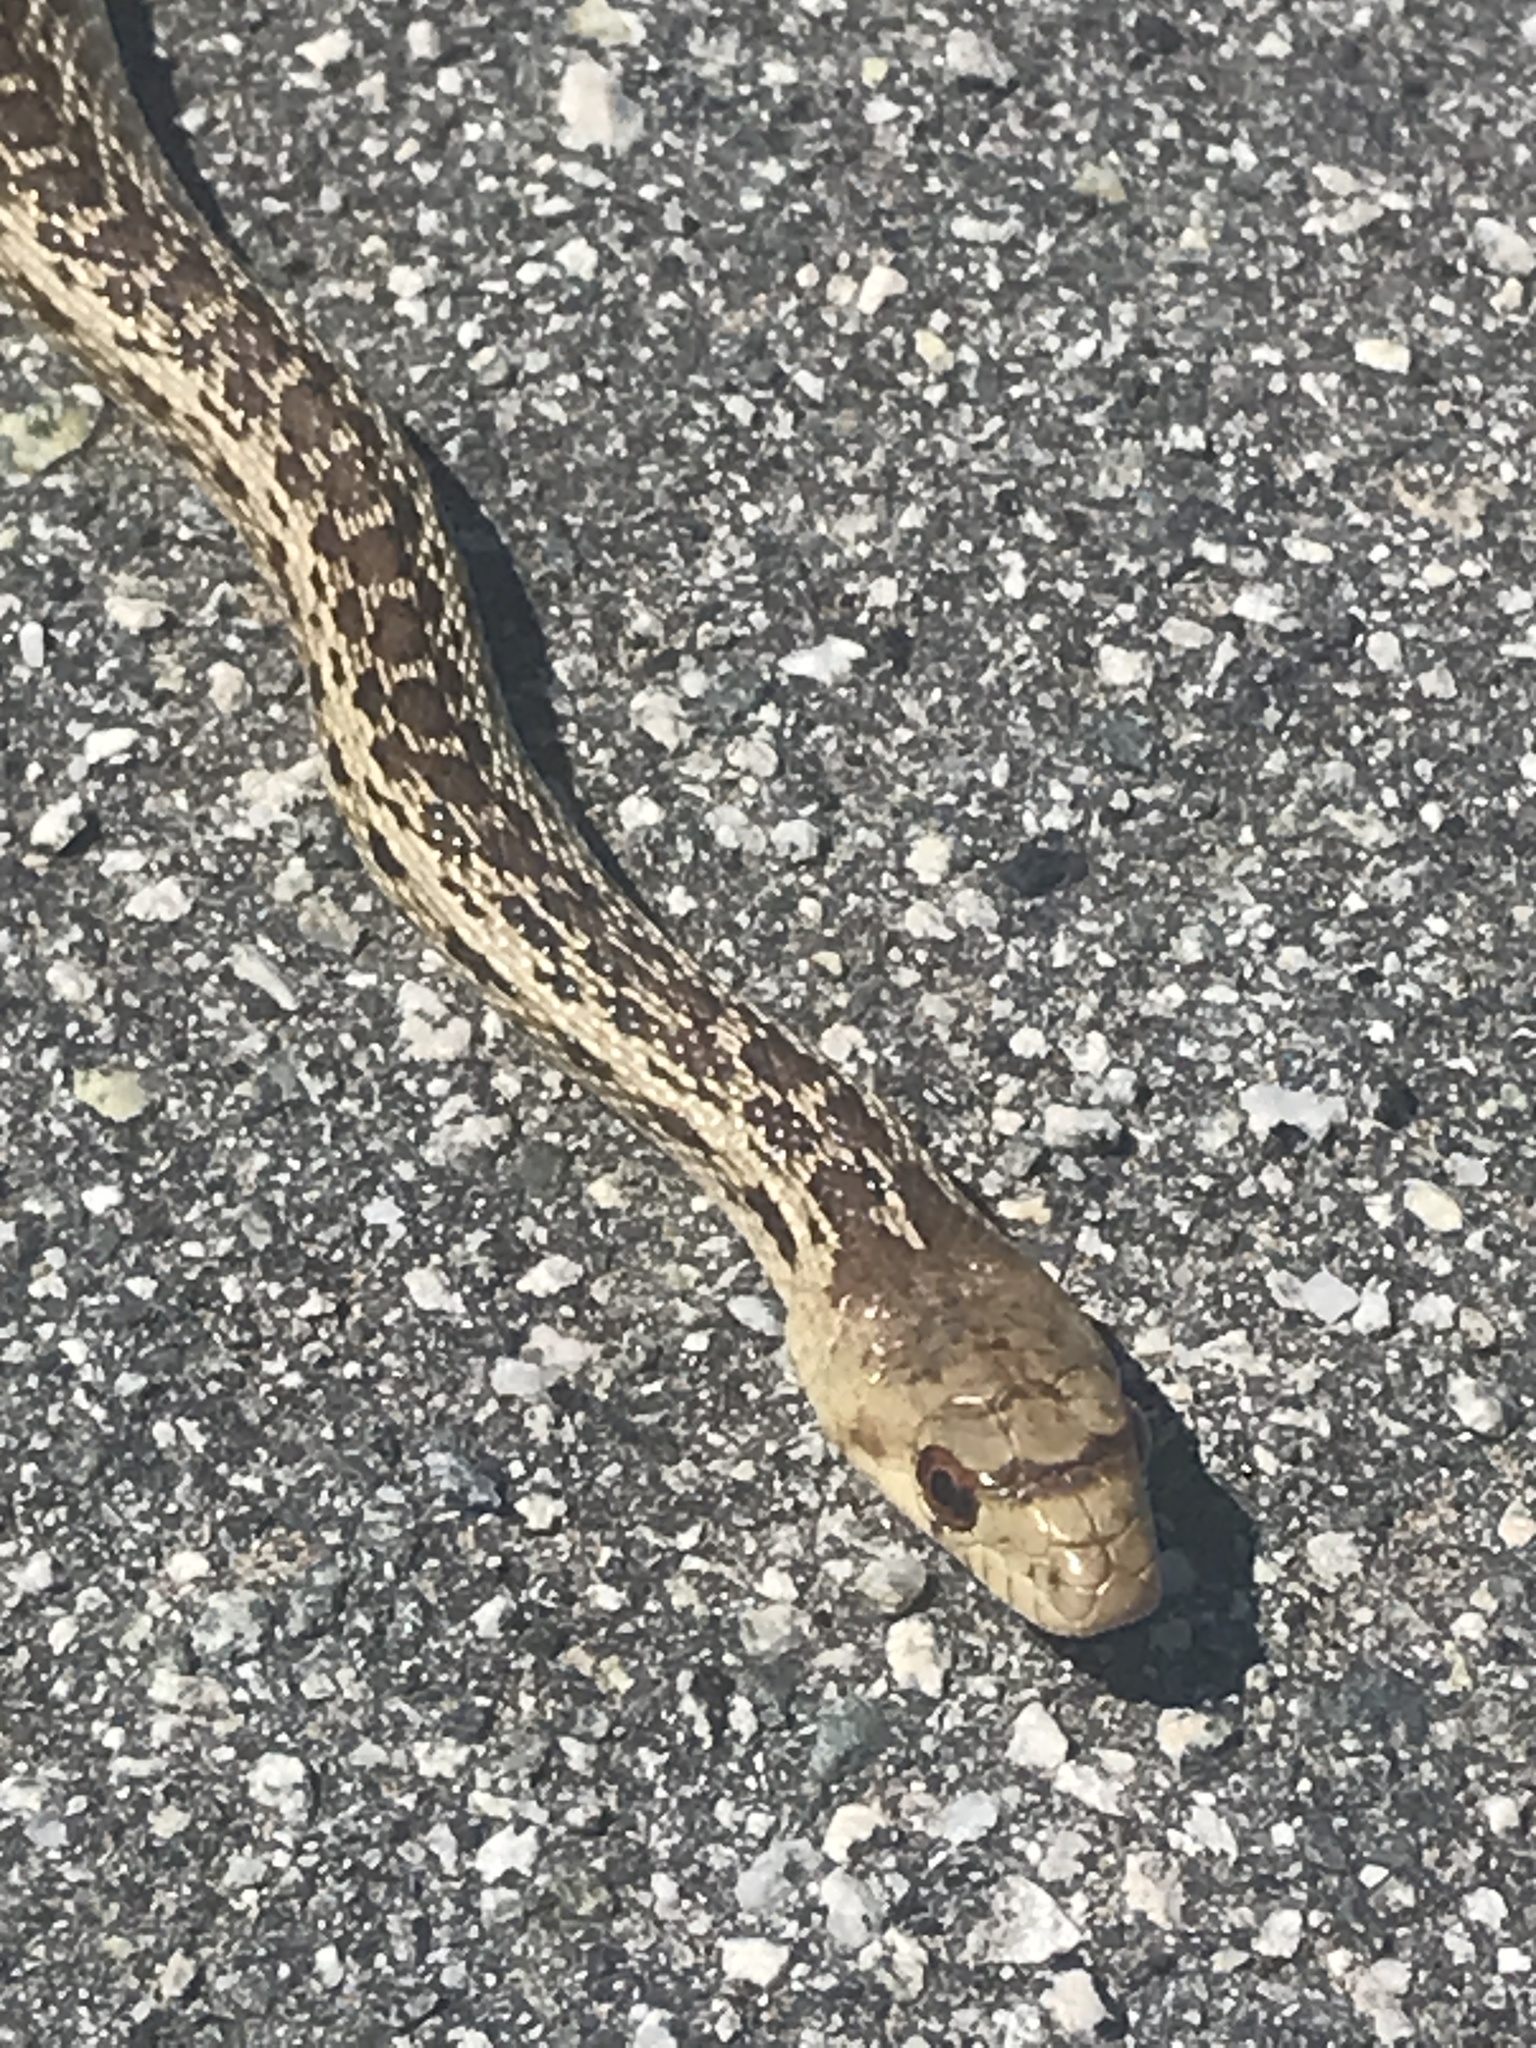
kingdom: Animalia
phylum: Chordata
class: Squamata
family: Colubridae
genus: Pituophis
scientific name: Pituophis catenifer
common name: Gopher snake
